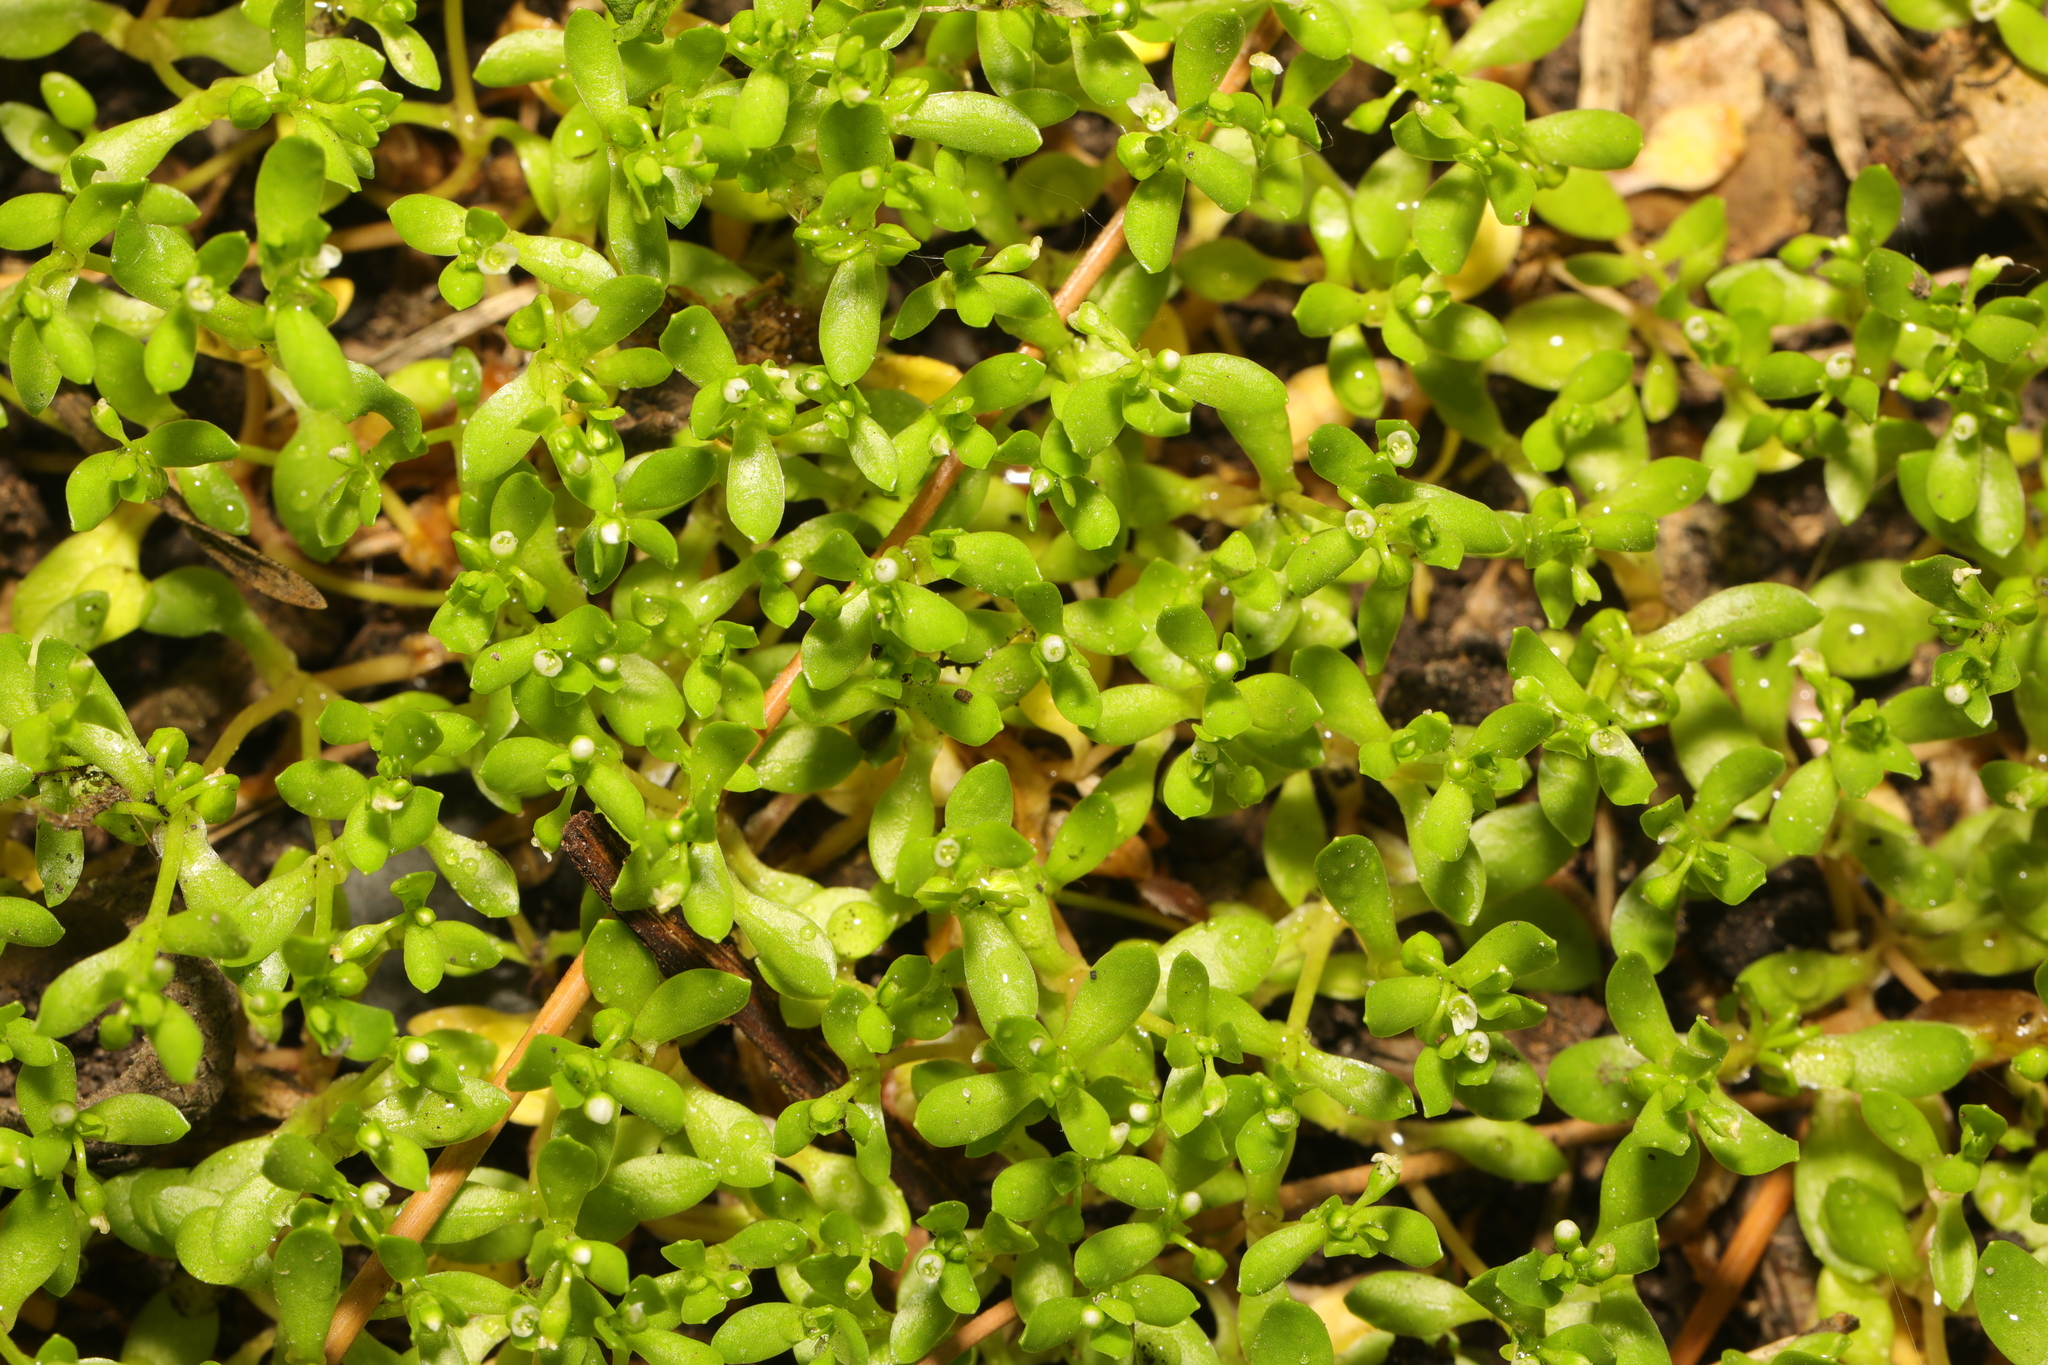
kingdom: Plantae
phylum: Tracheophyta
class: Magnoliopsida
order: Caryophyllales
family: Montiaceae
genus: Montia
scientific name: Montia fontana
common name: Blinks
